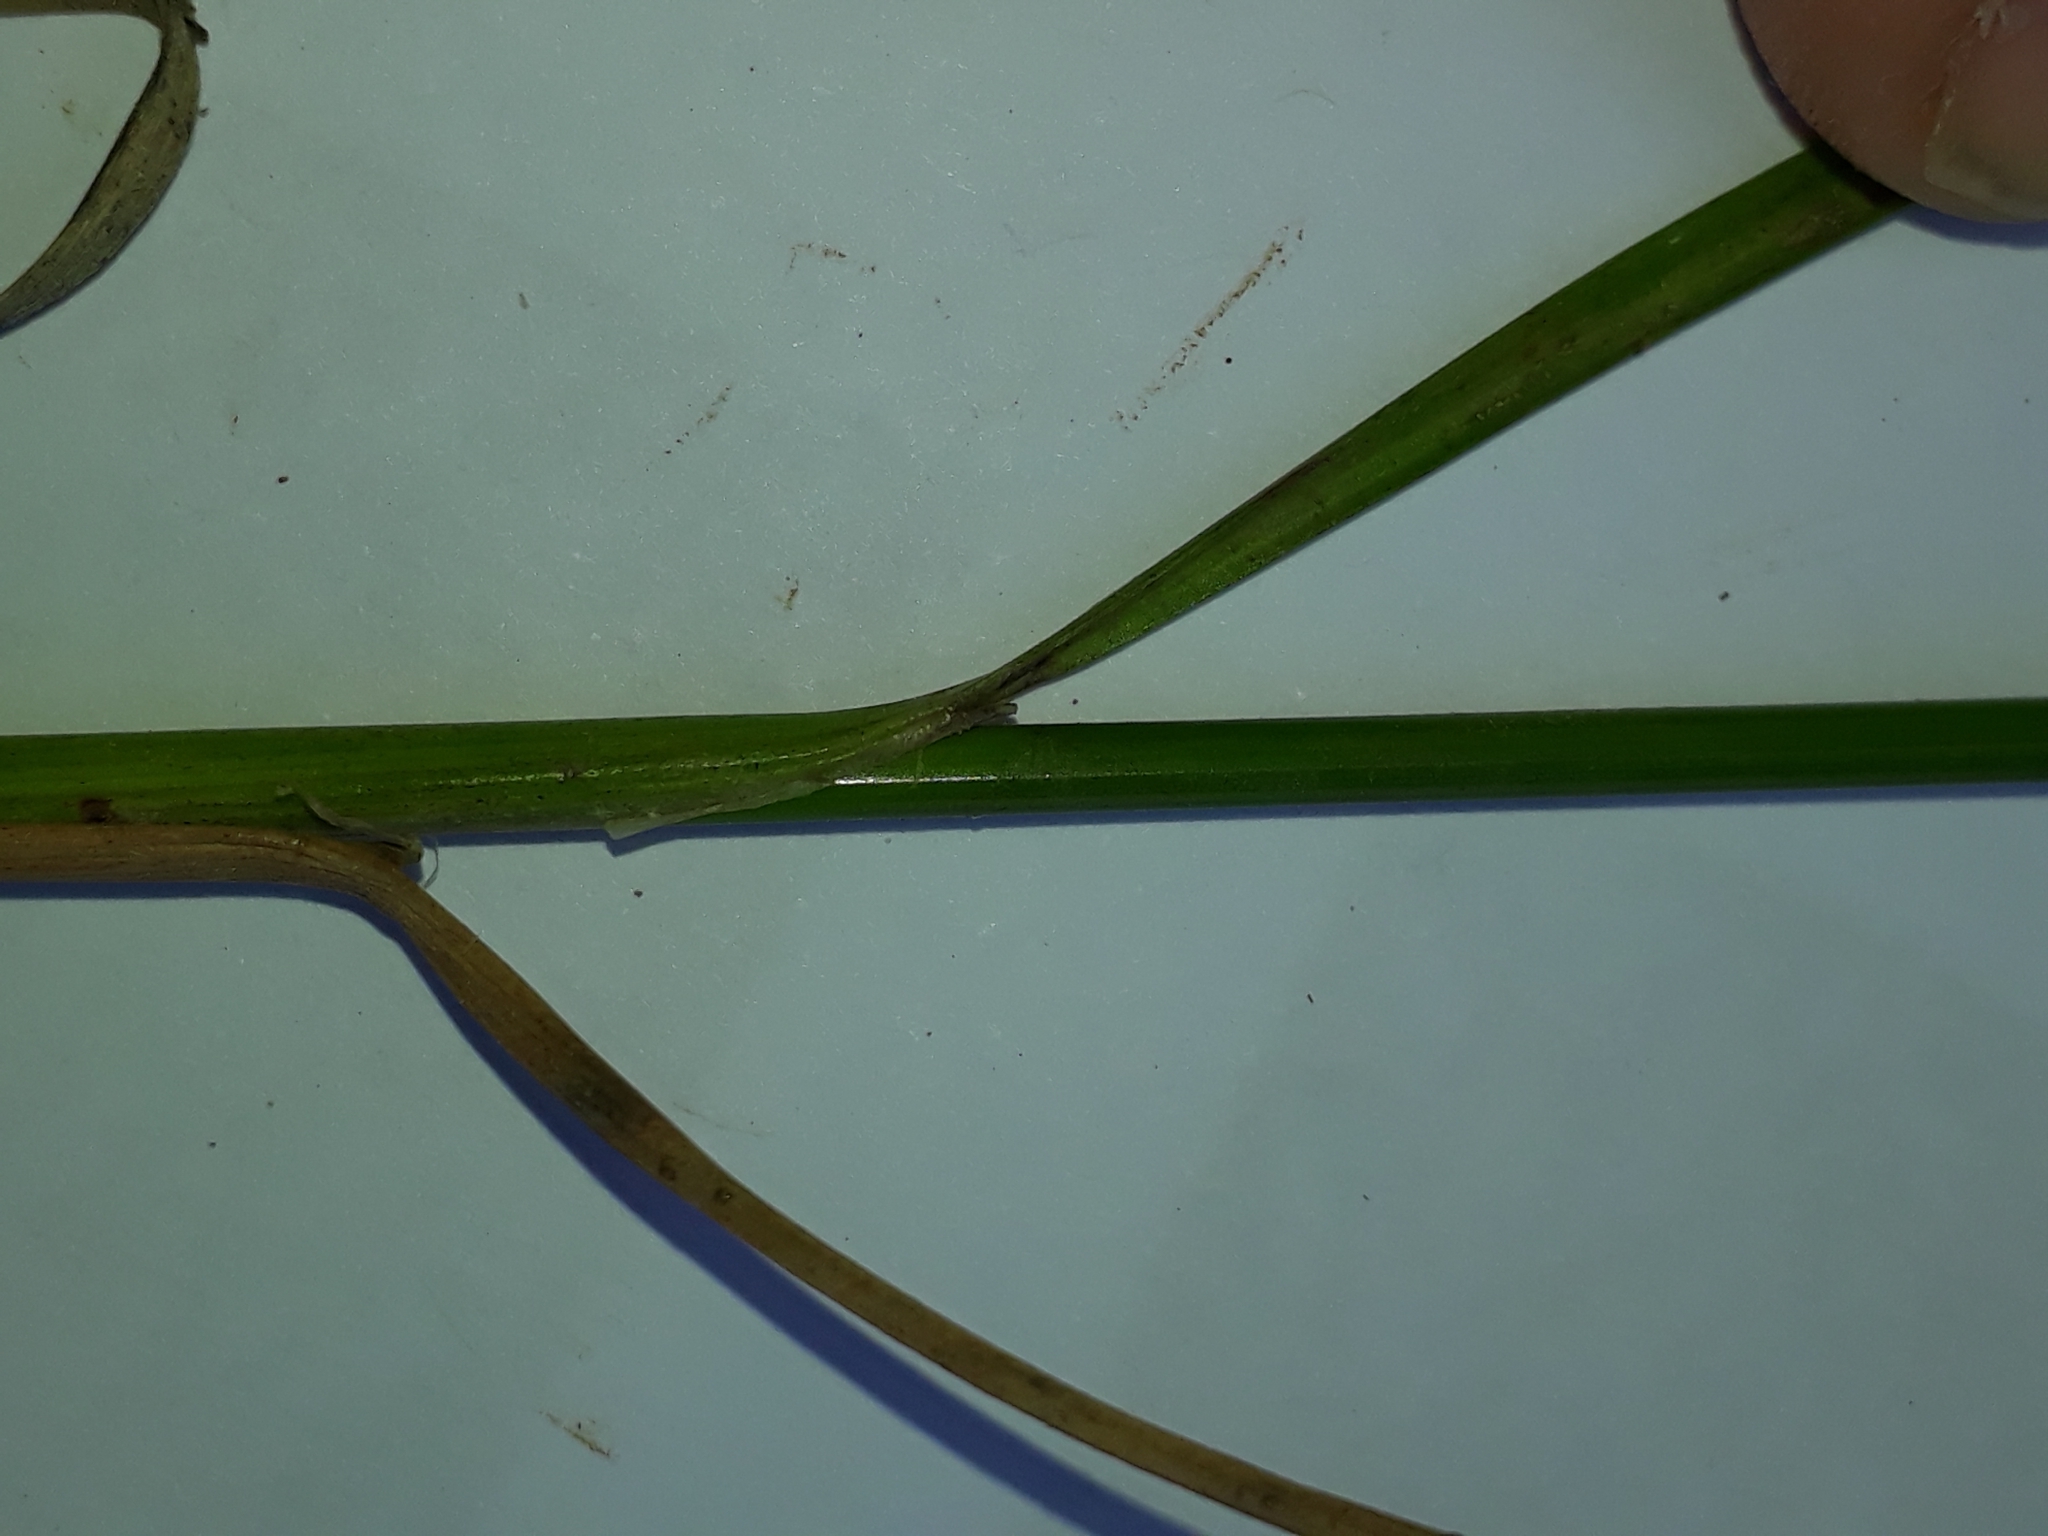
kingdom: Plantae
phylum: Tracheophyta
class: Liliopsida
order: Poales
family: Juncaceae
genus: Juncus
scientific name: Juncus anthelatus
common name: Giant path rush
